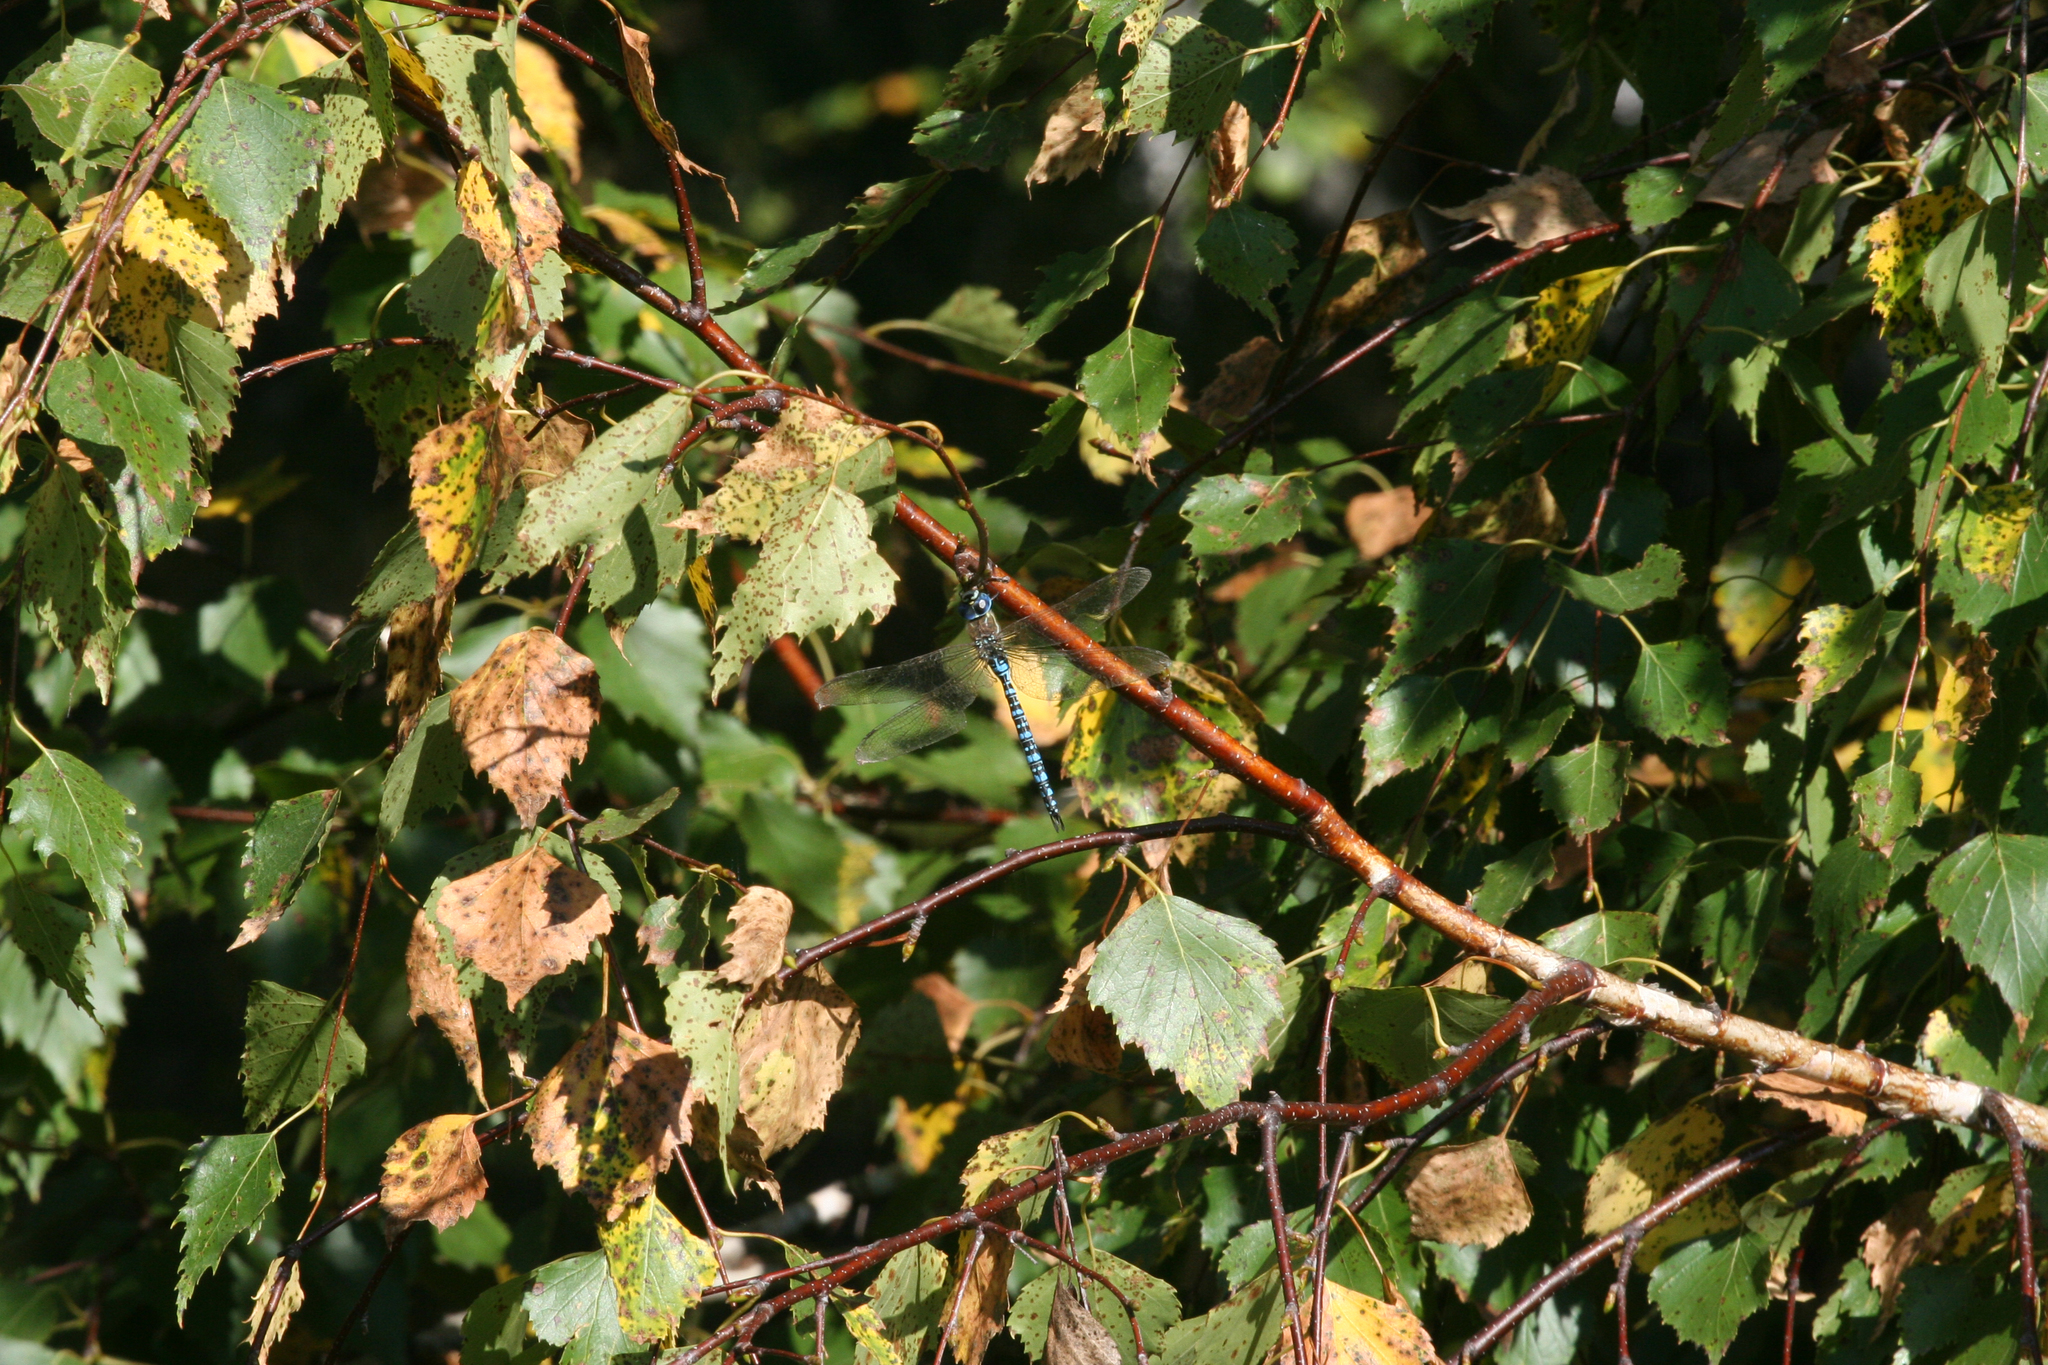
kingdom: Plantae
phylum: Tracheophyta
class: Magnoliopsida
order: Fagales
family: Betulaceae
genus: Betula
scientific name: Betula pendula
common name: Silver birch
